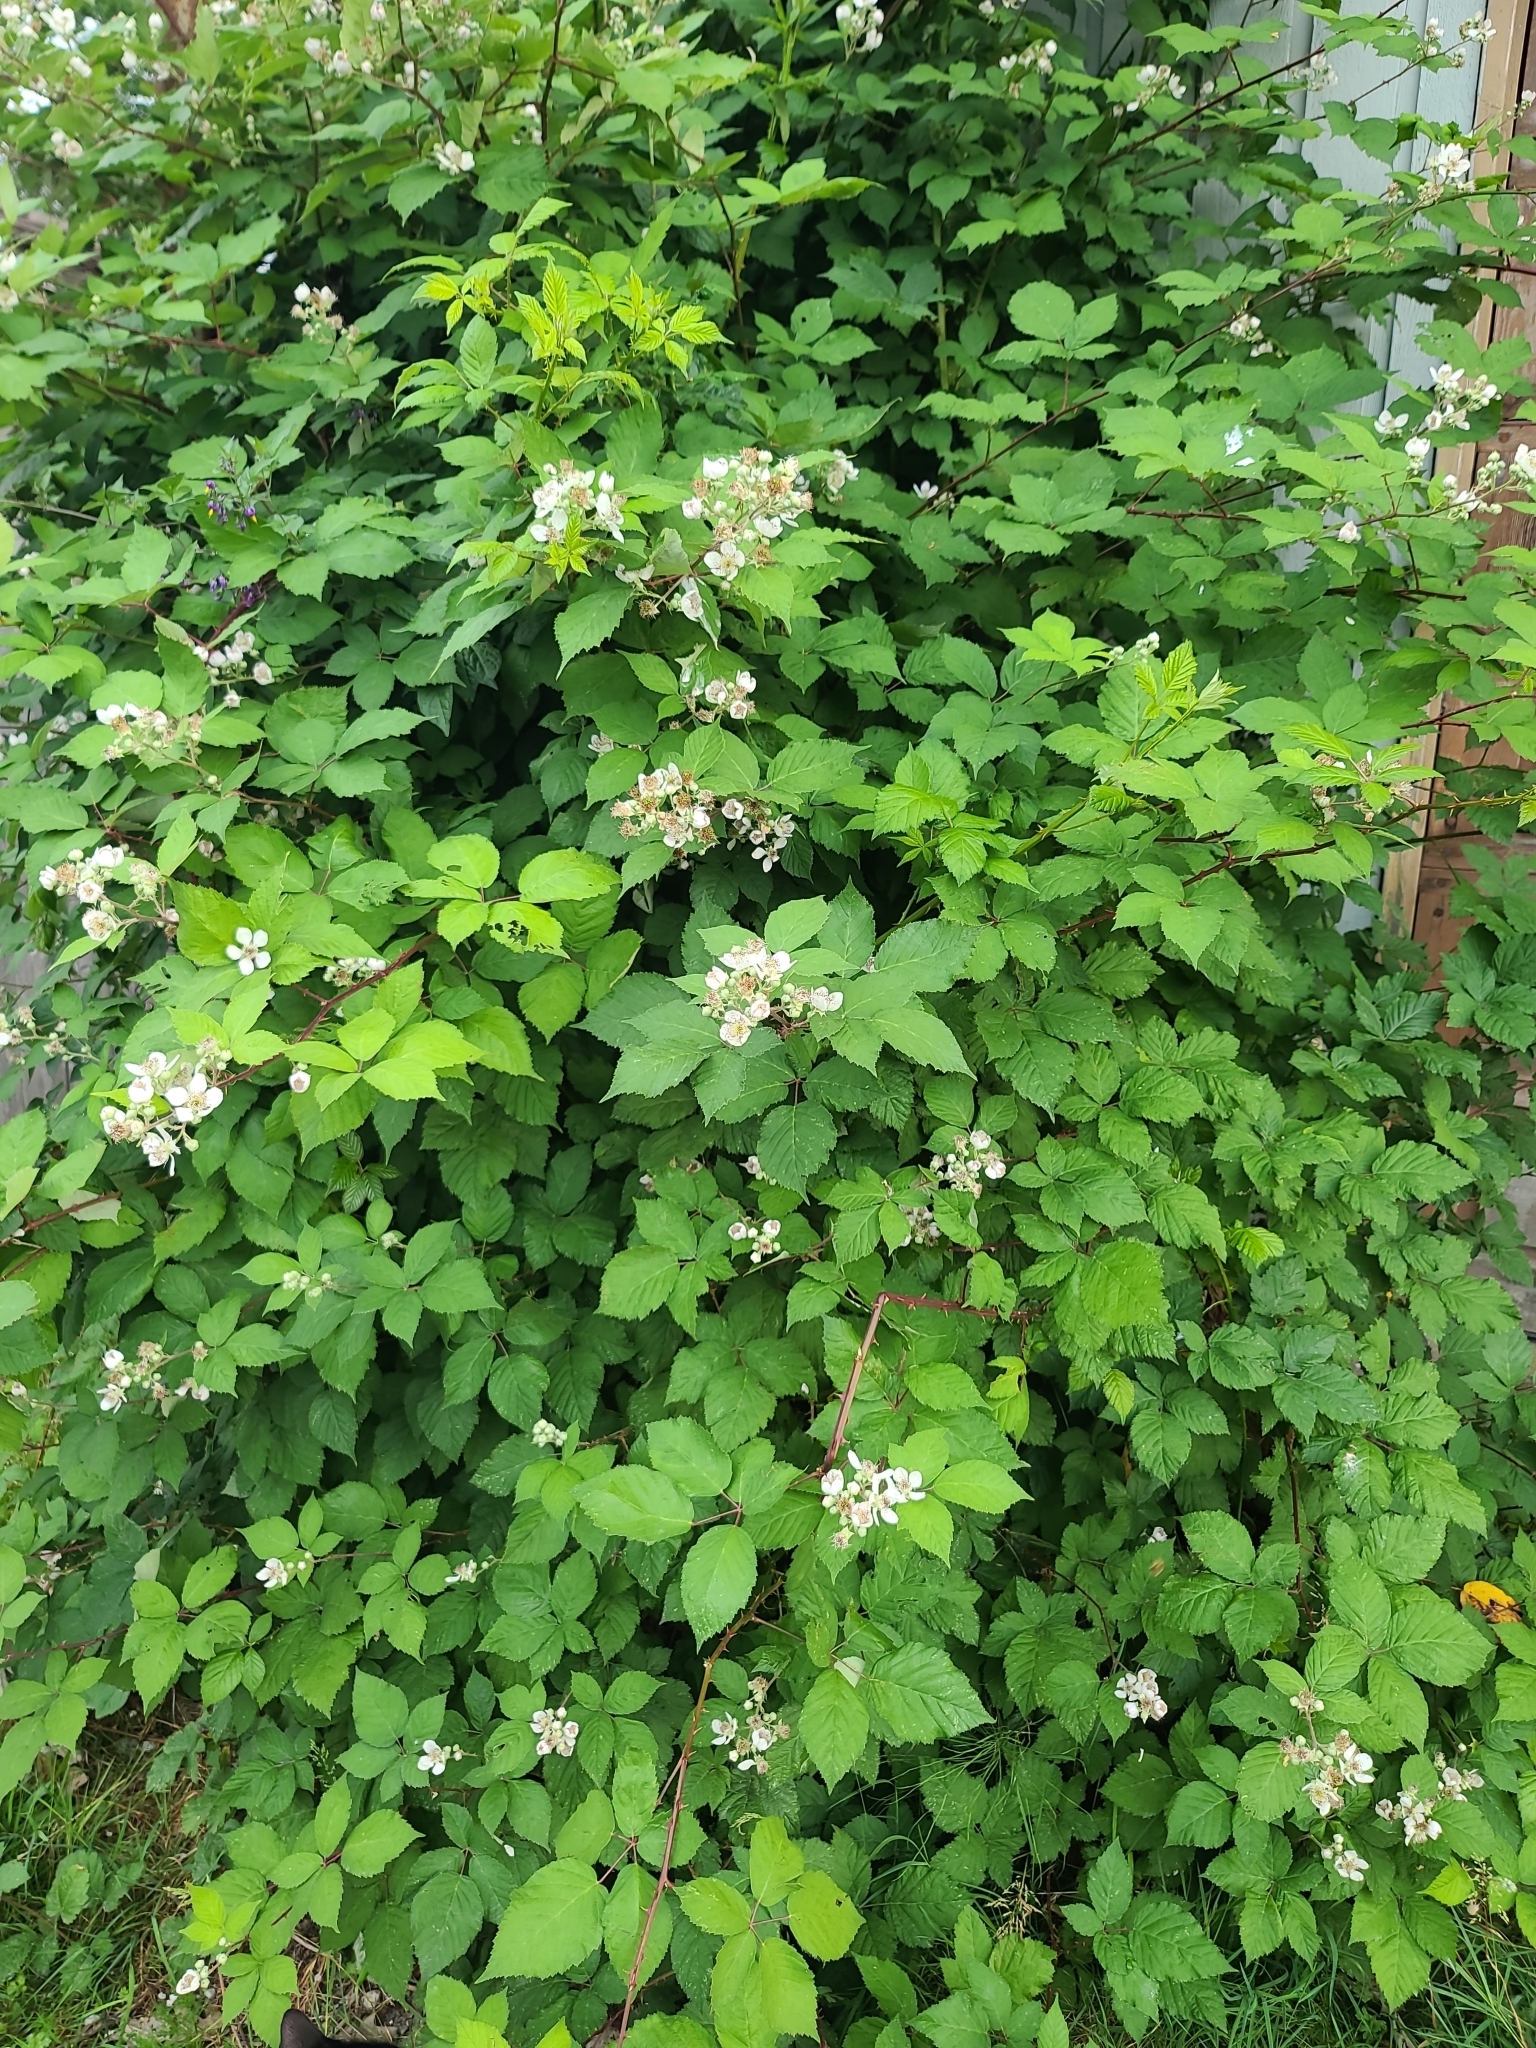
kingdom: Plantae
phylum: Tracheophyta
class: Magnoliopsida
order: Solanales
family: Solanaceae
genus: Solanum
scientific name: Solanum dulcamara
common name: Climbing nightshade
